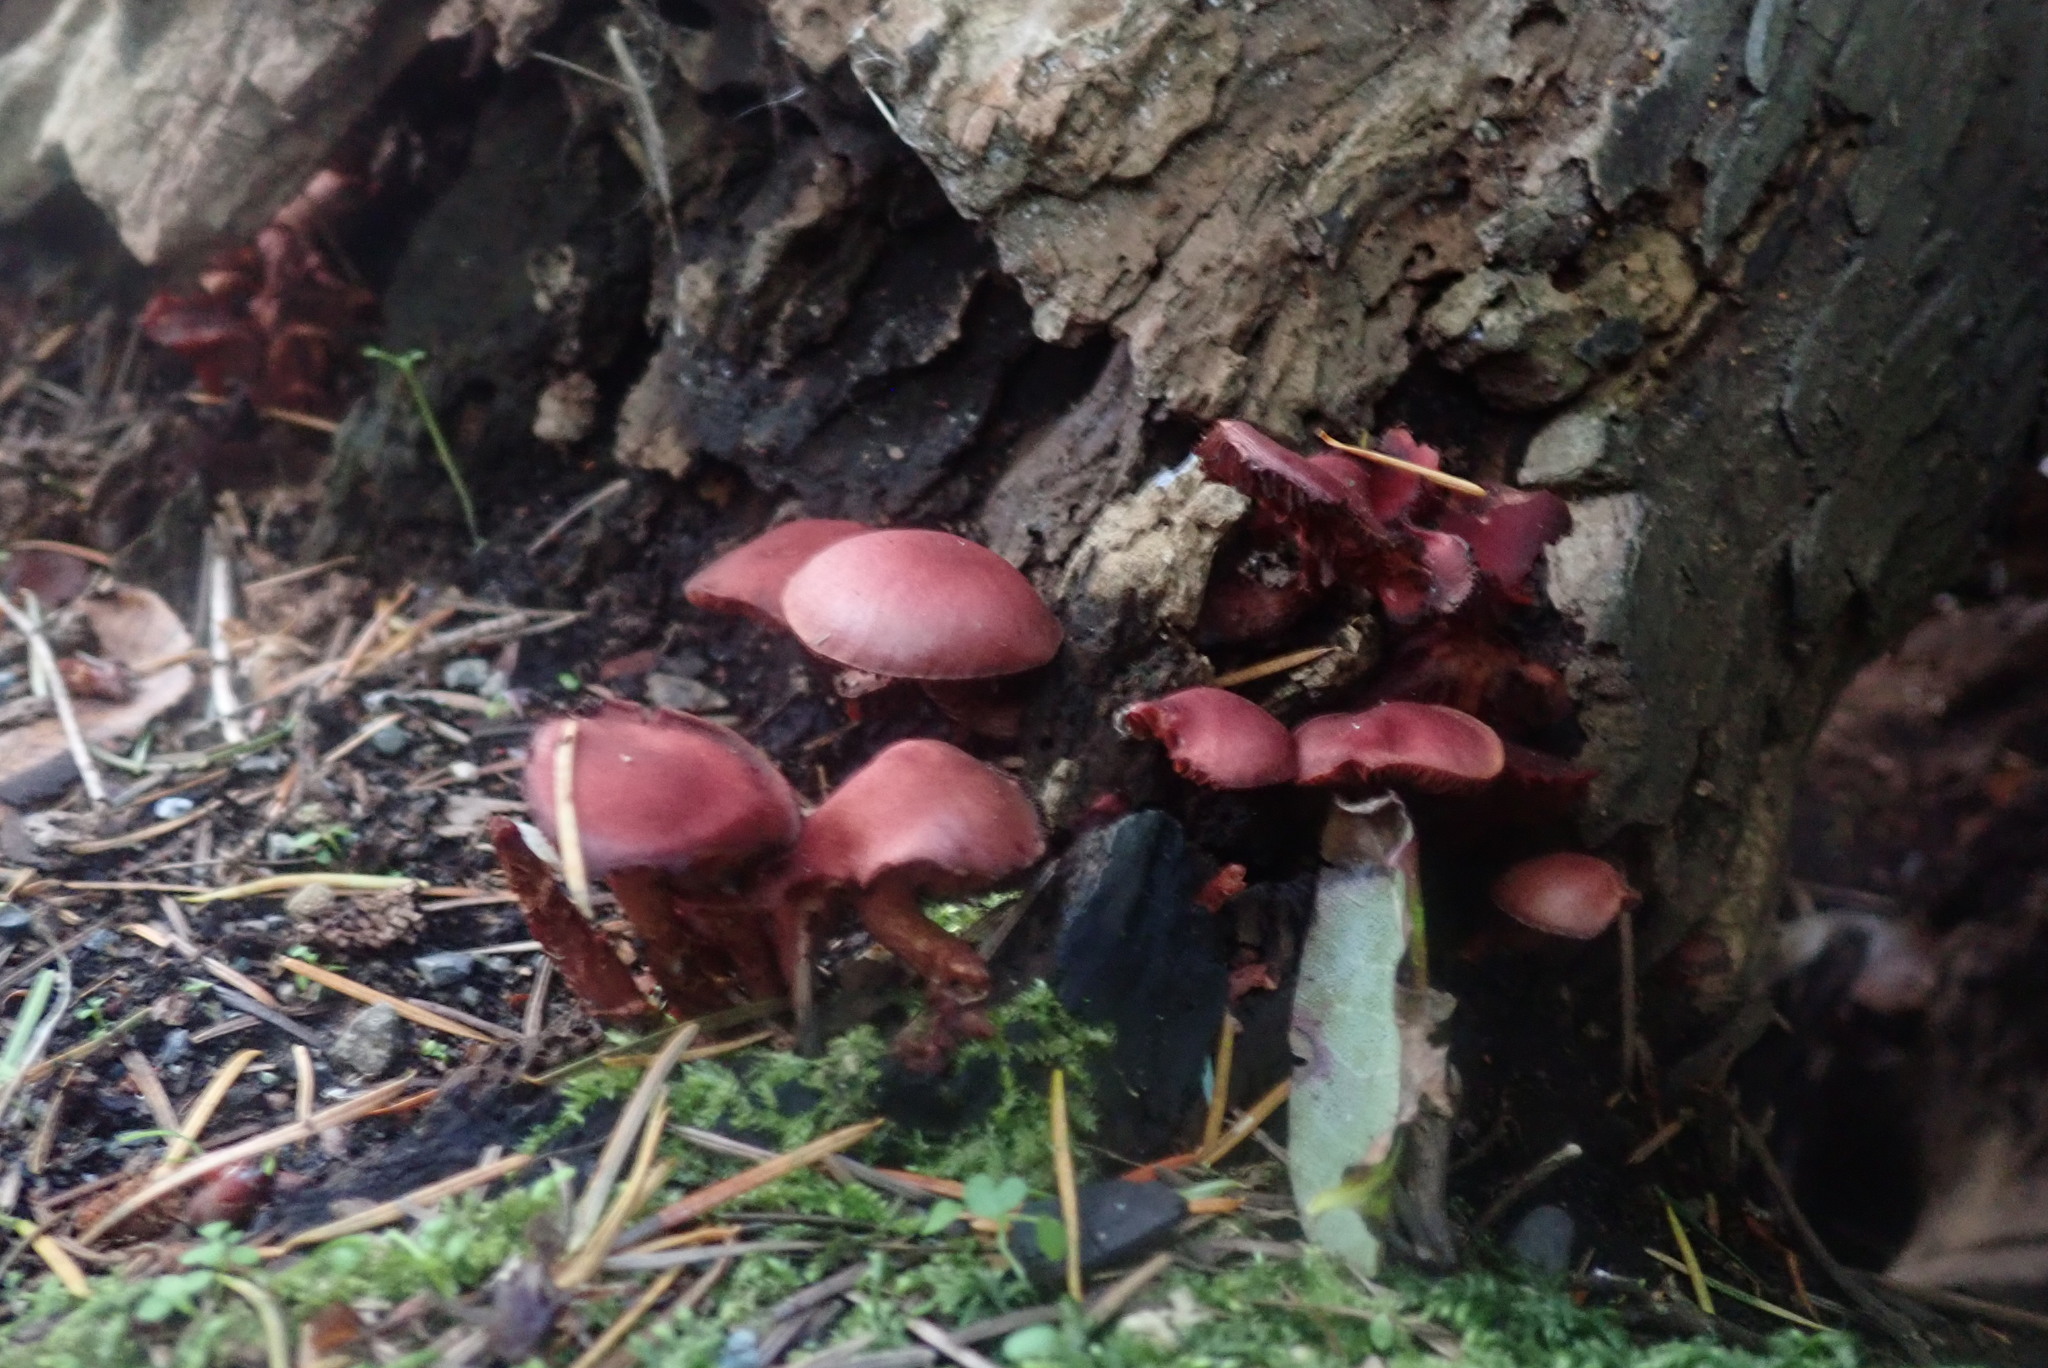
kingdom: Fungi
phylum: Basidiomycota
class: Agaricomycetes
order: Agaricales
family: Tubariaceae
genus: Tubaria
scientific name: Tubaria punicea
